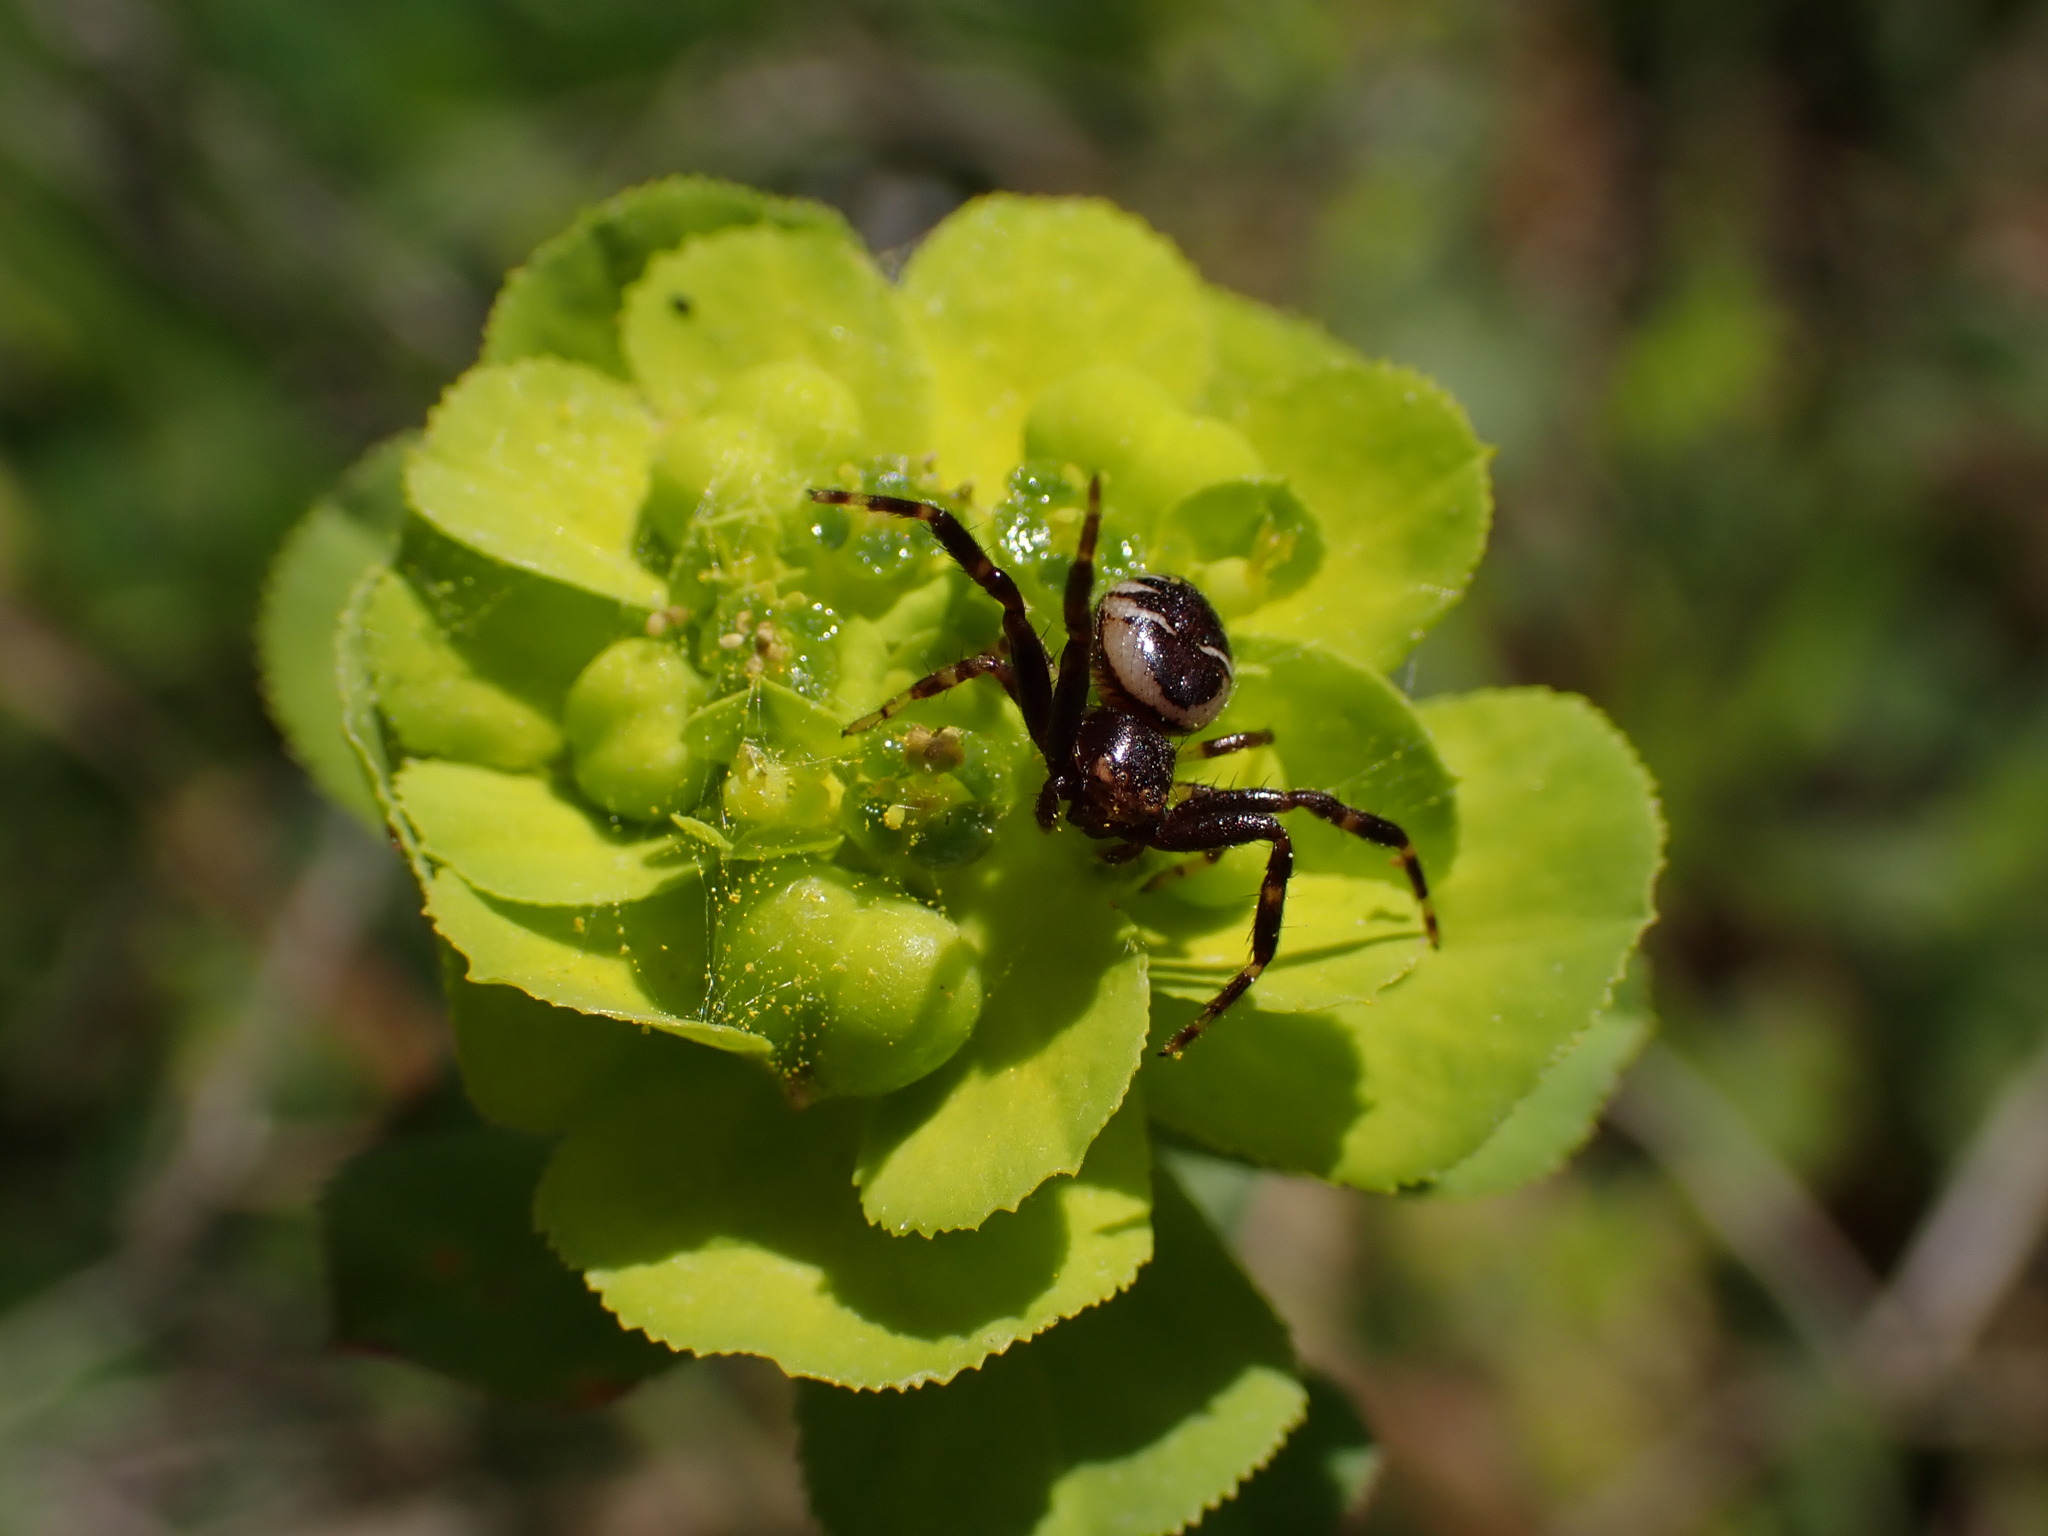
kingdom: Animalia
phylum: Arthropoda
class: Arachnida
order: Araneae
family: Thomisidae
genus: Synema
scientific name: Synema globosum
